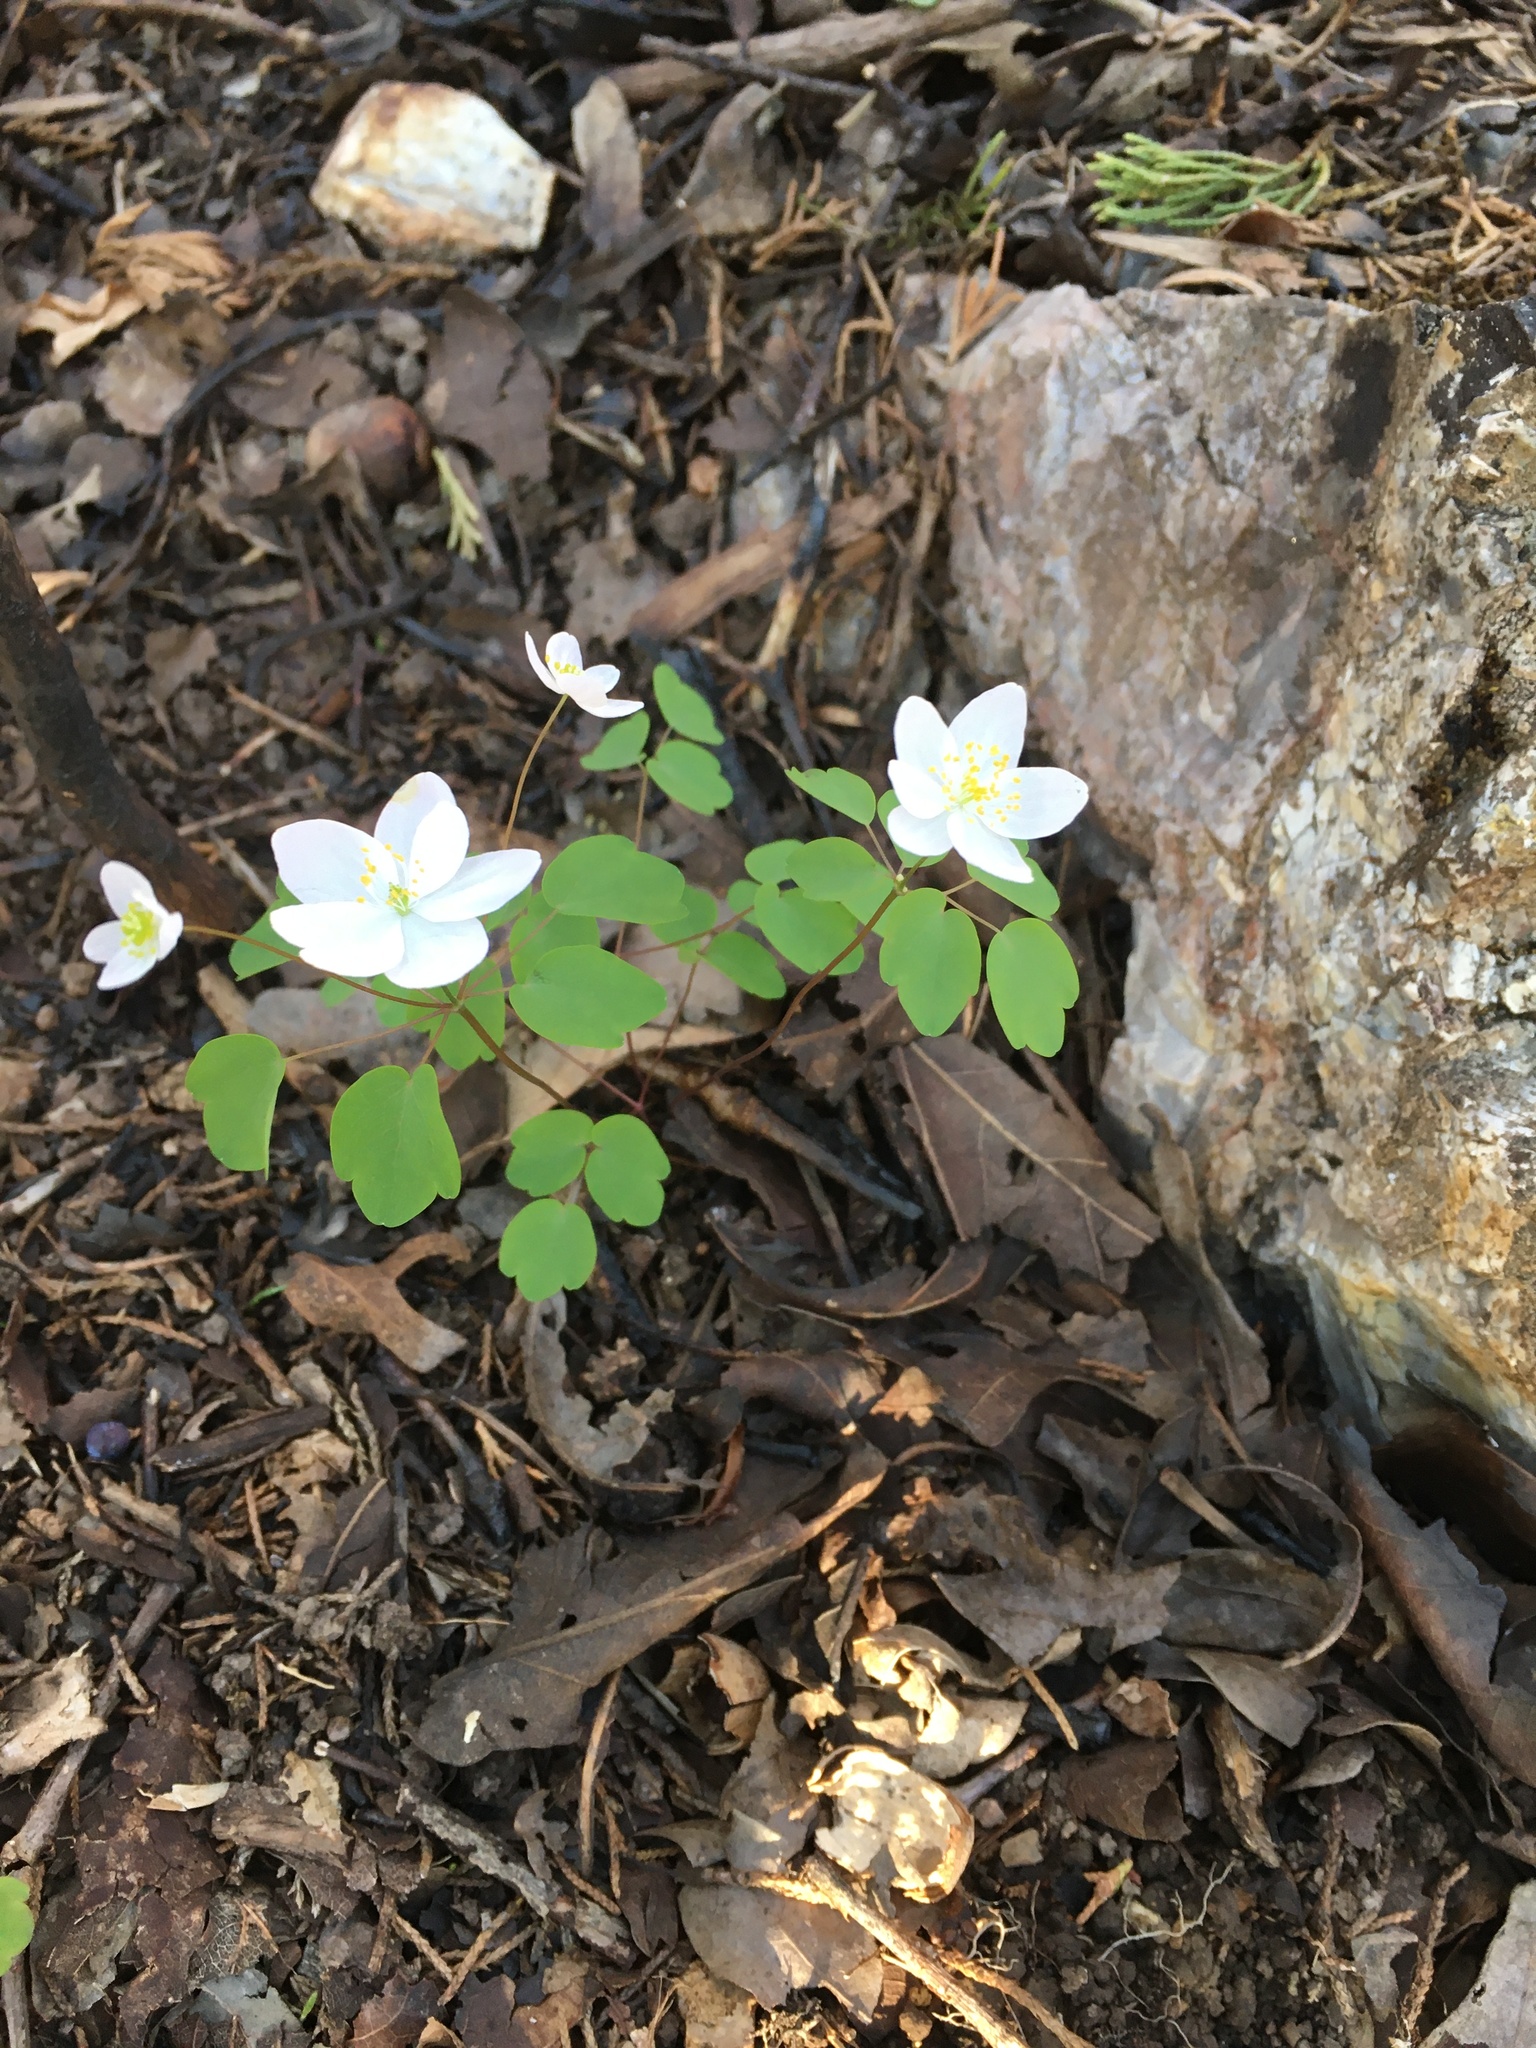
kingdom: Plantae
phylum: Tracheophyta
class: Magnoliopsida
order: Ranunculales
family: Ranunculaceae
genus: Thalictrum
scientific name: Thalictrum thalictroides
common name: Rue-anemone
